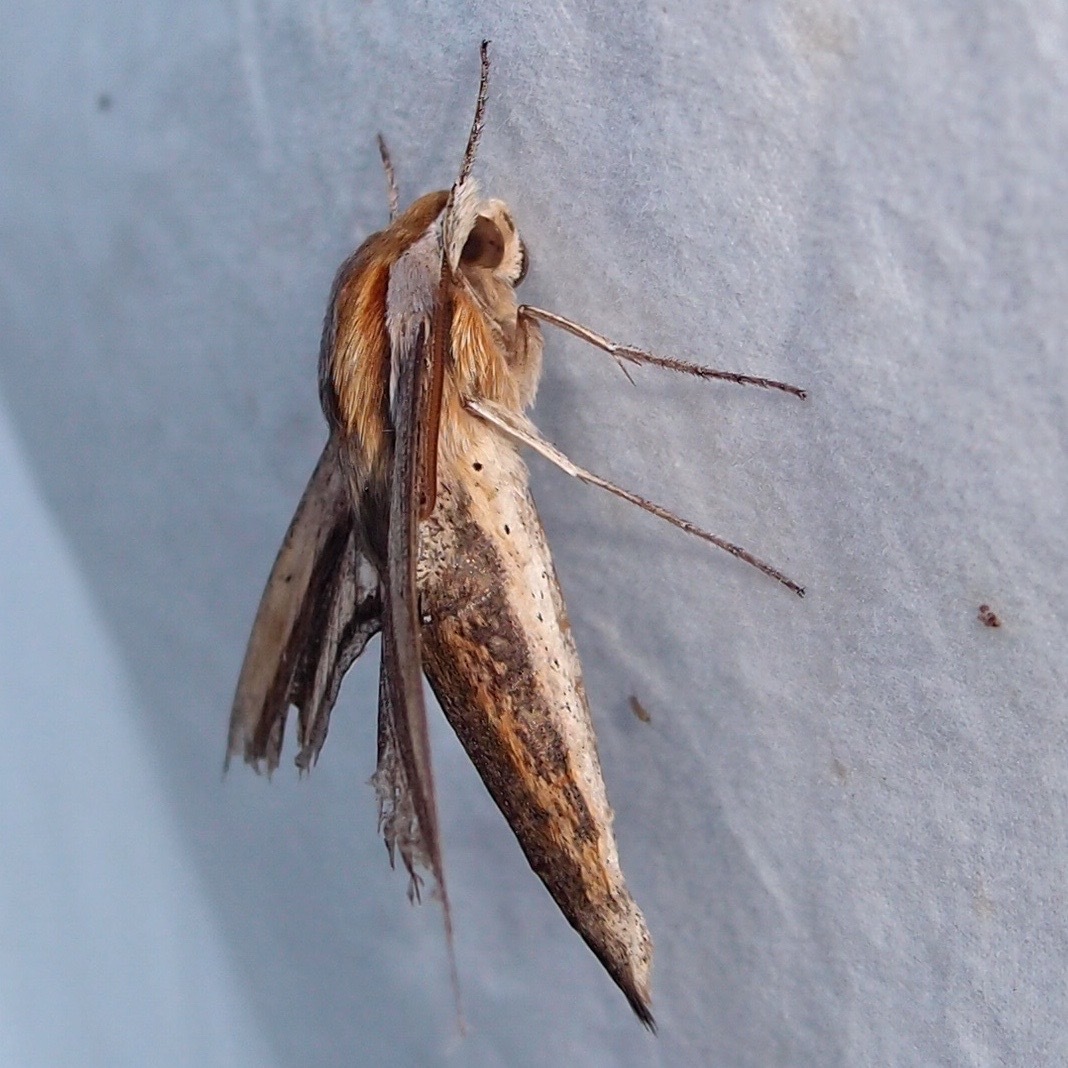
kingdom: Animalia
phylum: Arthropoda
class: Insecta
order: Lepidoptera
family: Sphingidae
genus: Xylophanes
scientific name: Xylophanes falco
